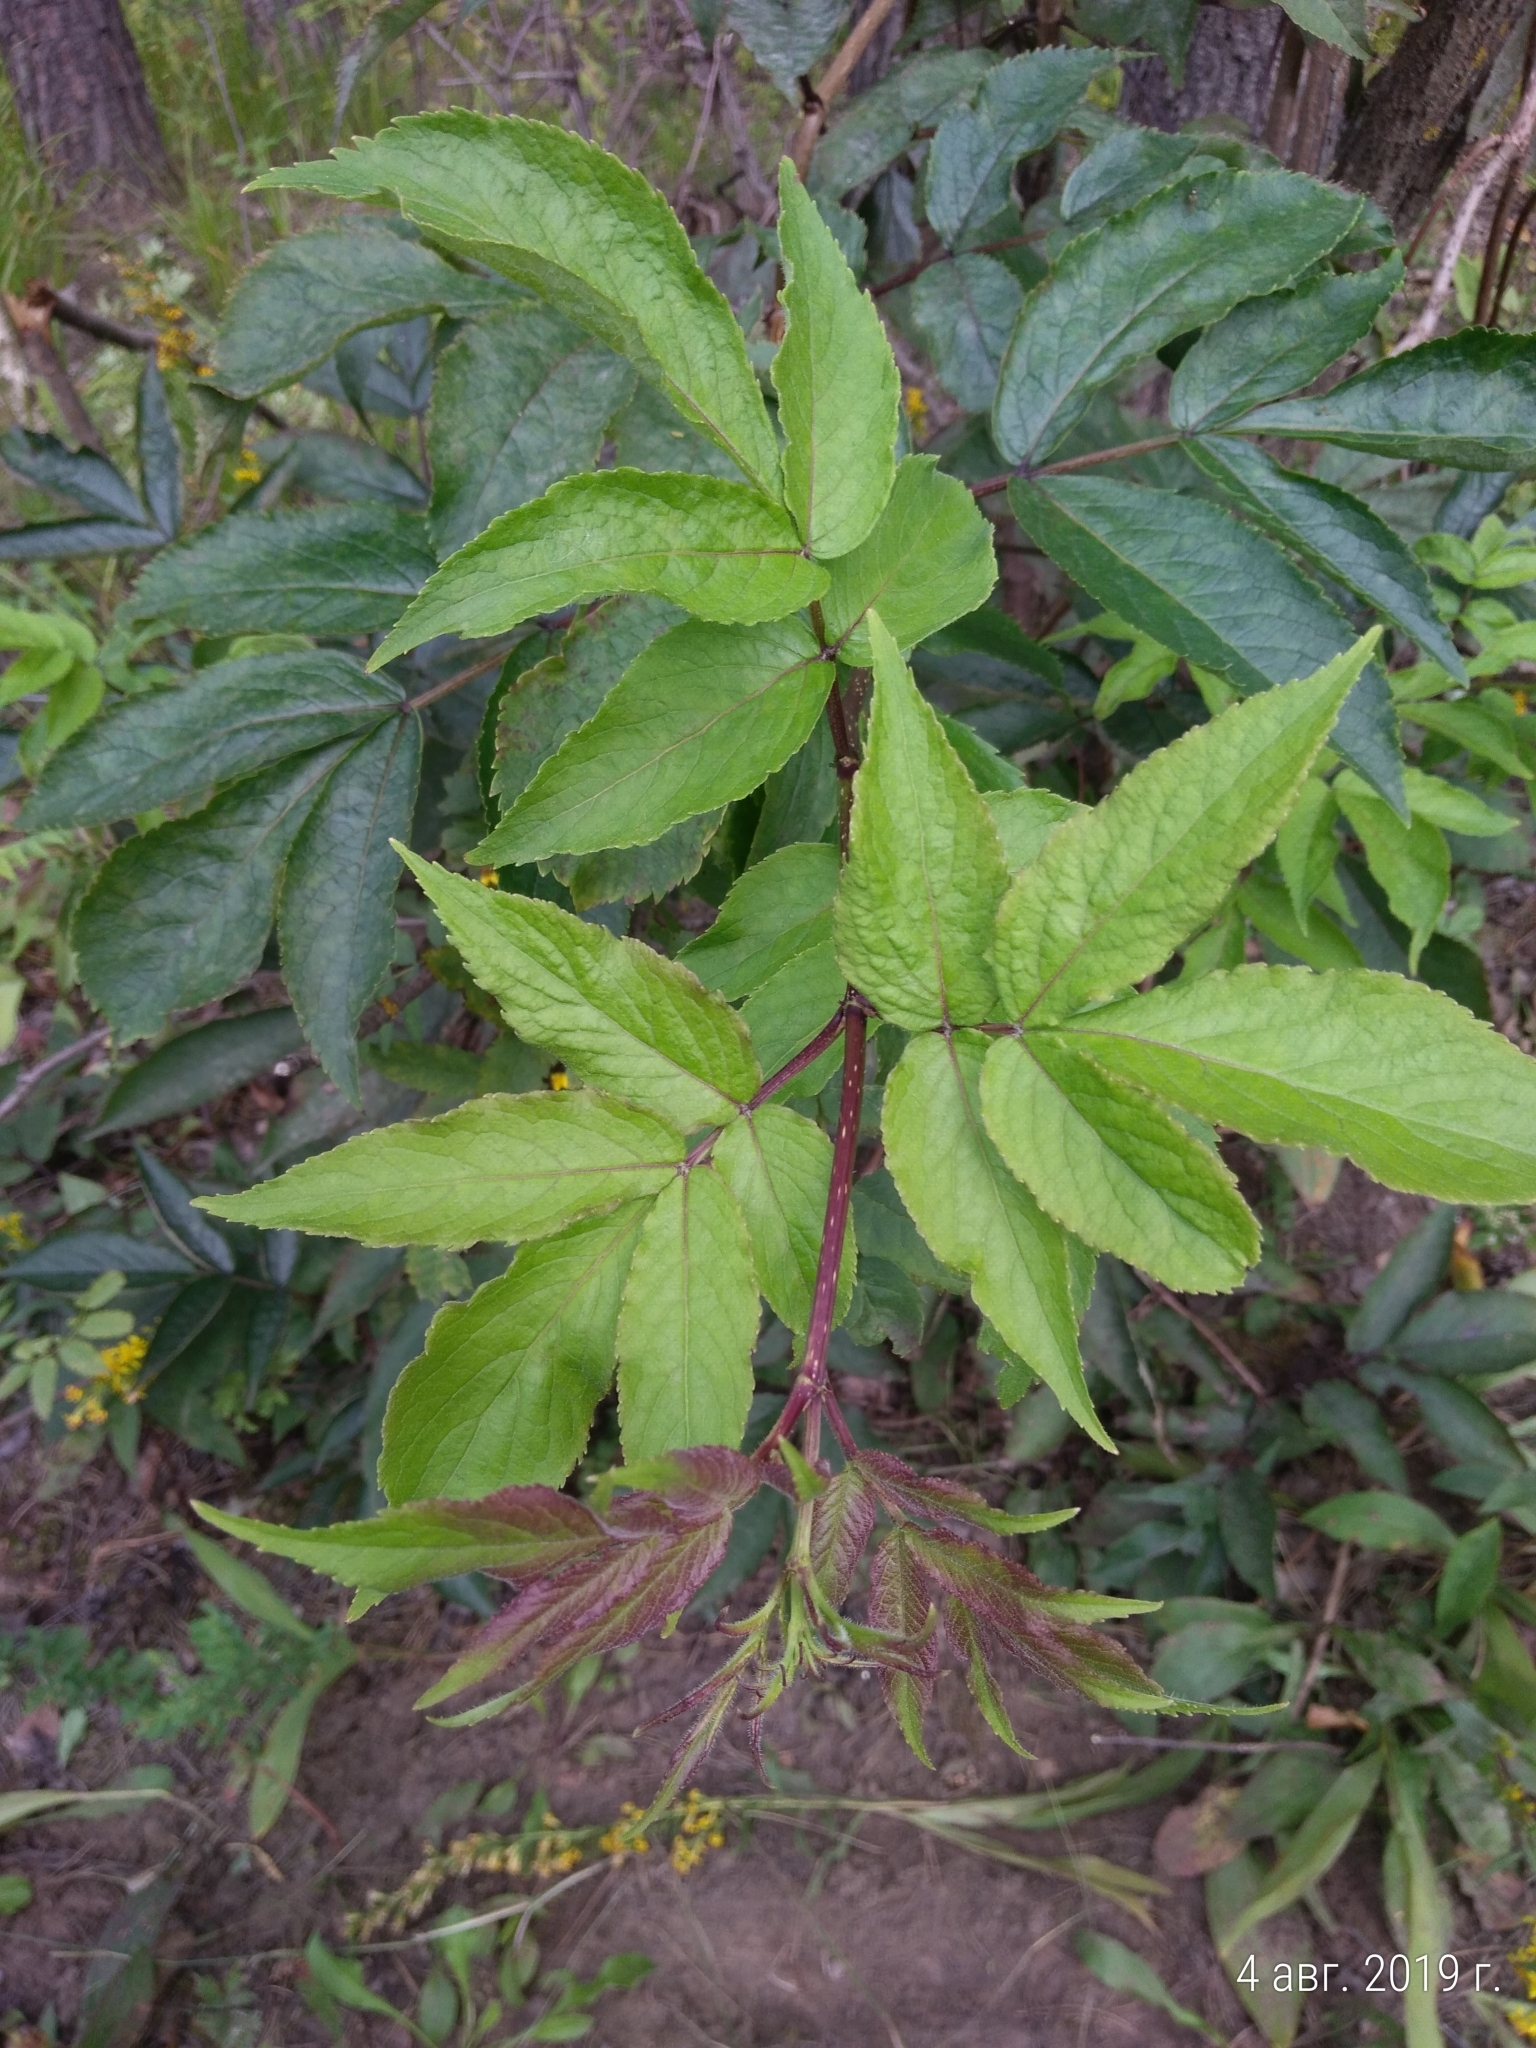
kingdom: Plantae
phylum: Tracheophyta
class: Magnoliopsida
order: Dipsacales
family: Viburnaceae
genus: Sambucus
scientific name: Sambucus racemosa
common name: Red-berried elder
